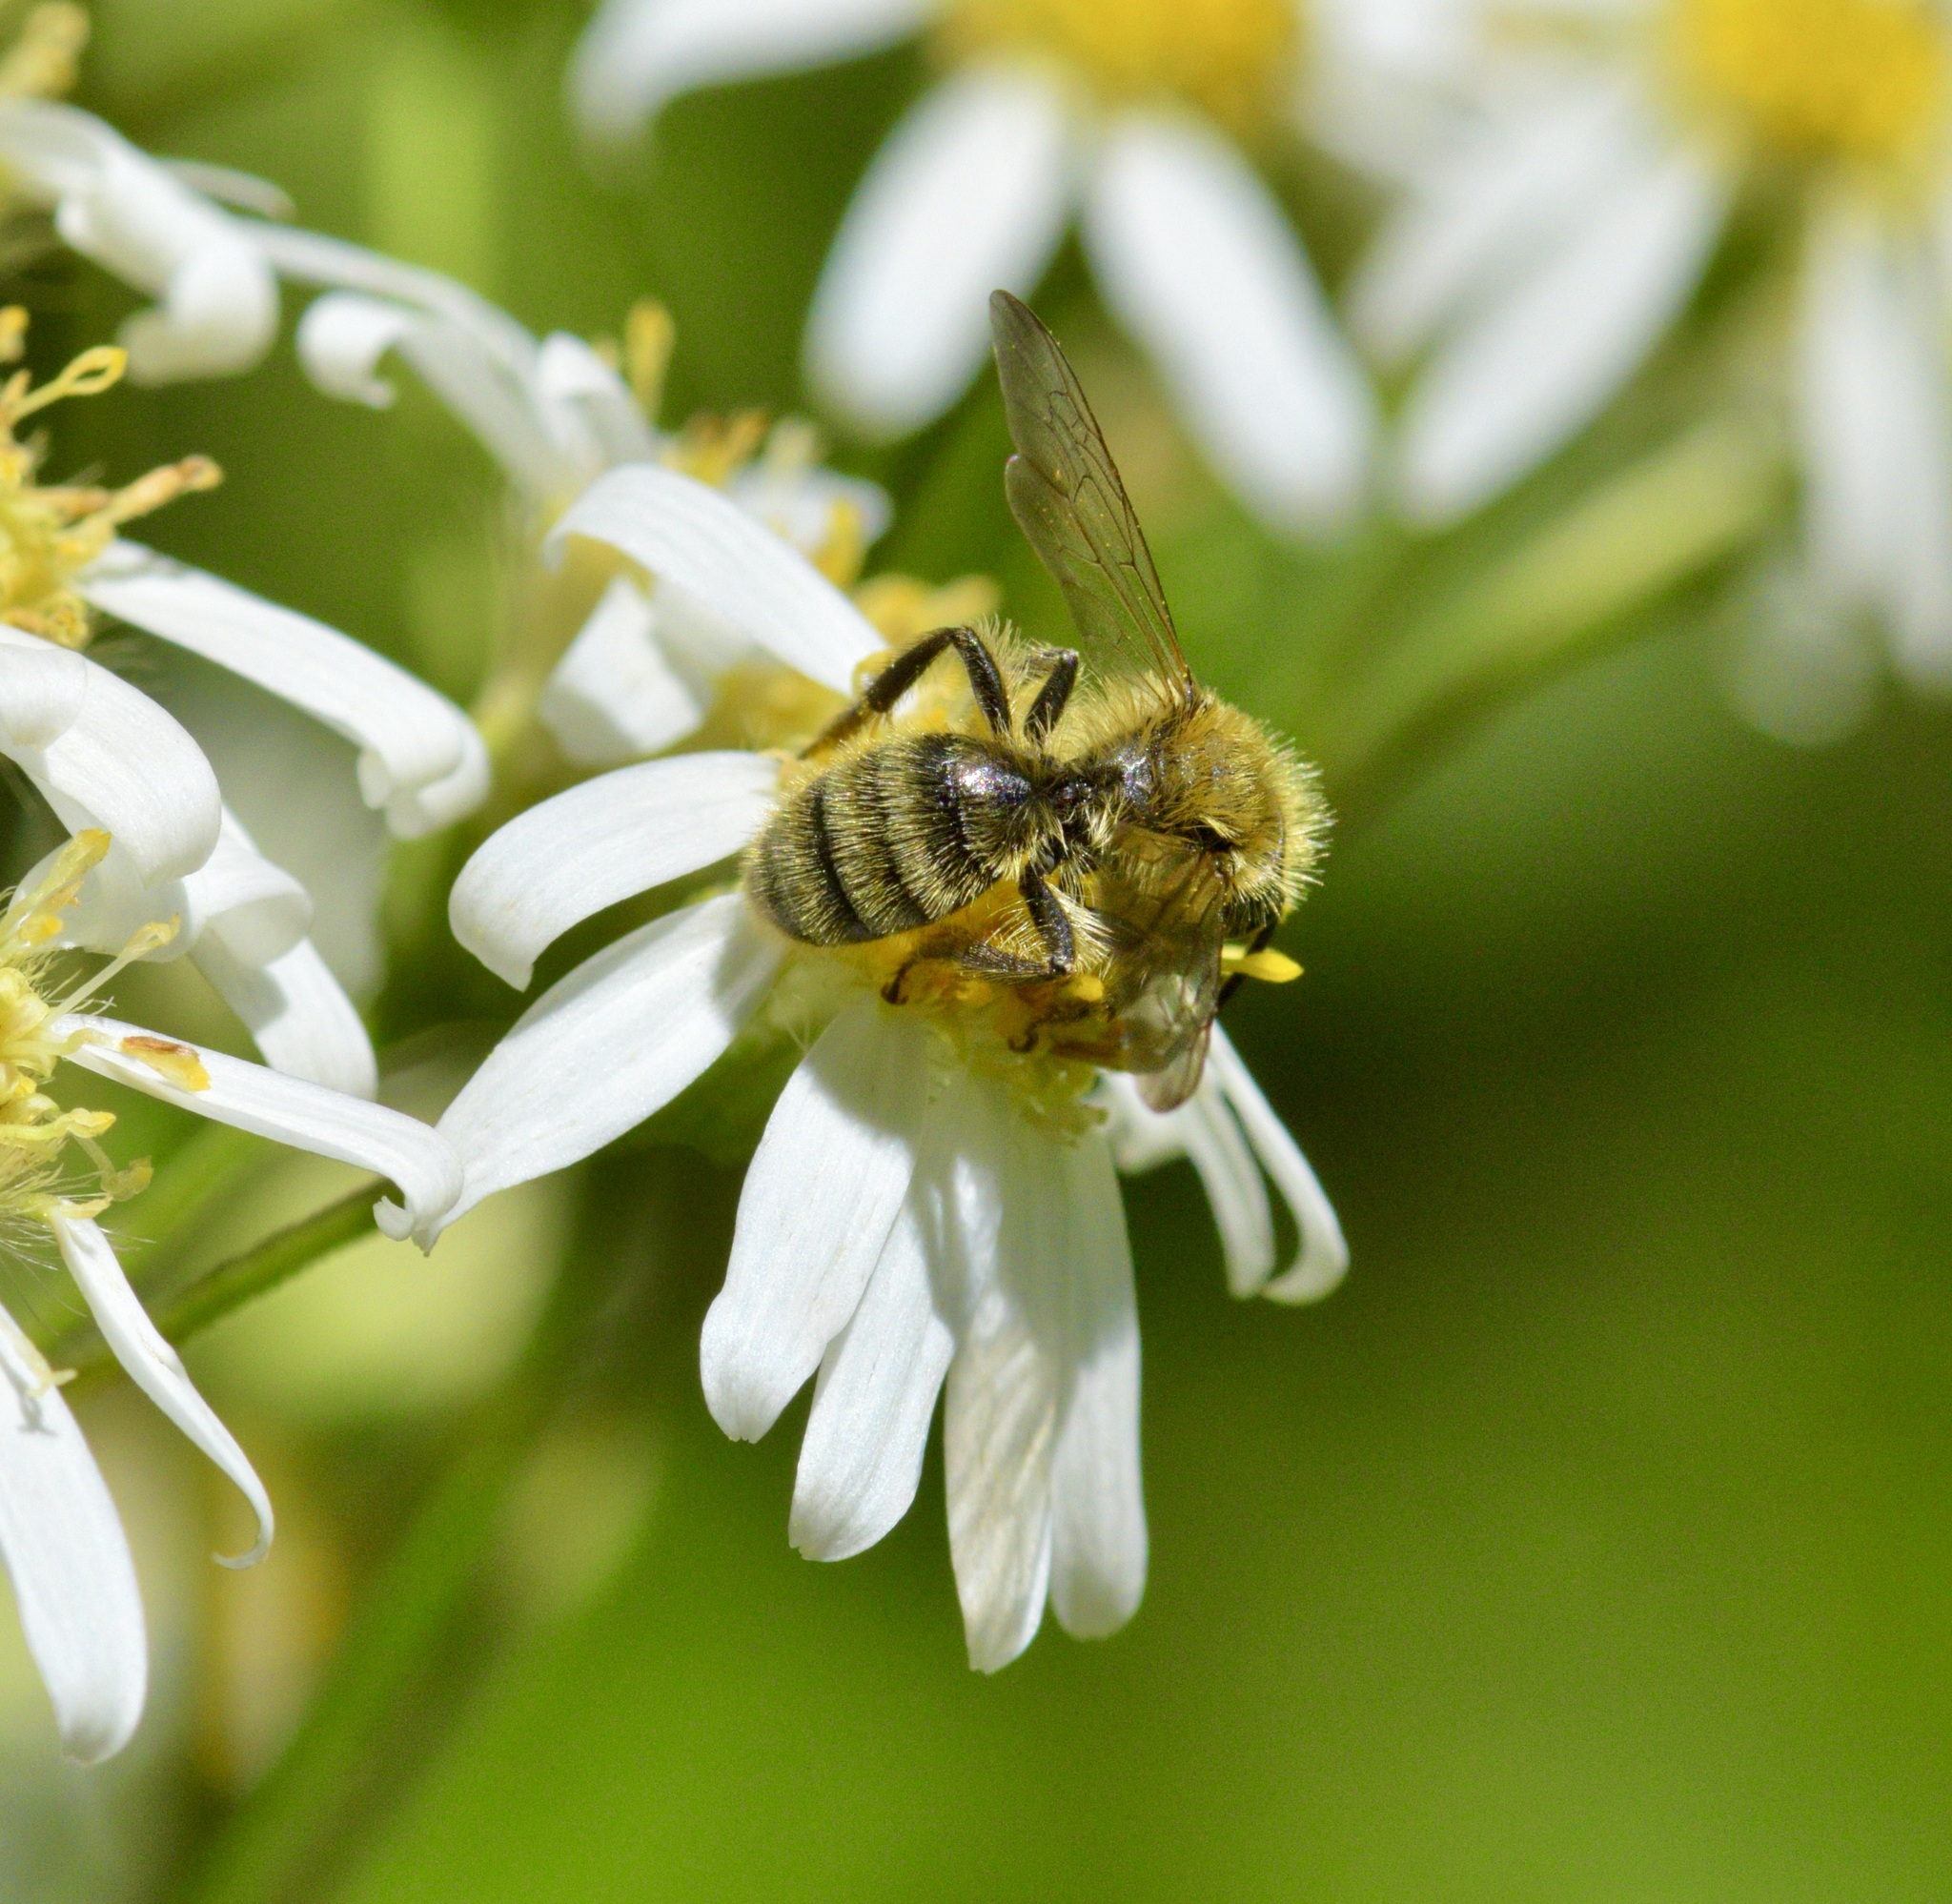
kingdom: Animalia
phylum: Arthropoda
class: Insecta
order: Hymenoptera
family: Andrenidae
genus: Andrena
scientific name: Andrena hirticincta
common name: Hairy-banded mining bee
